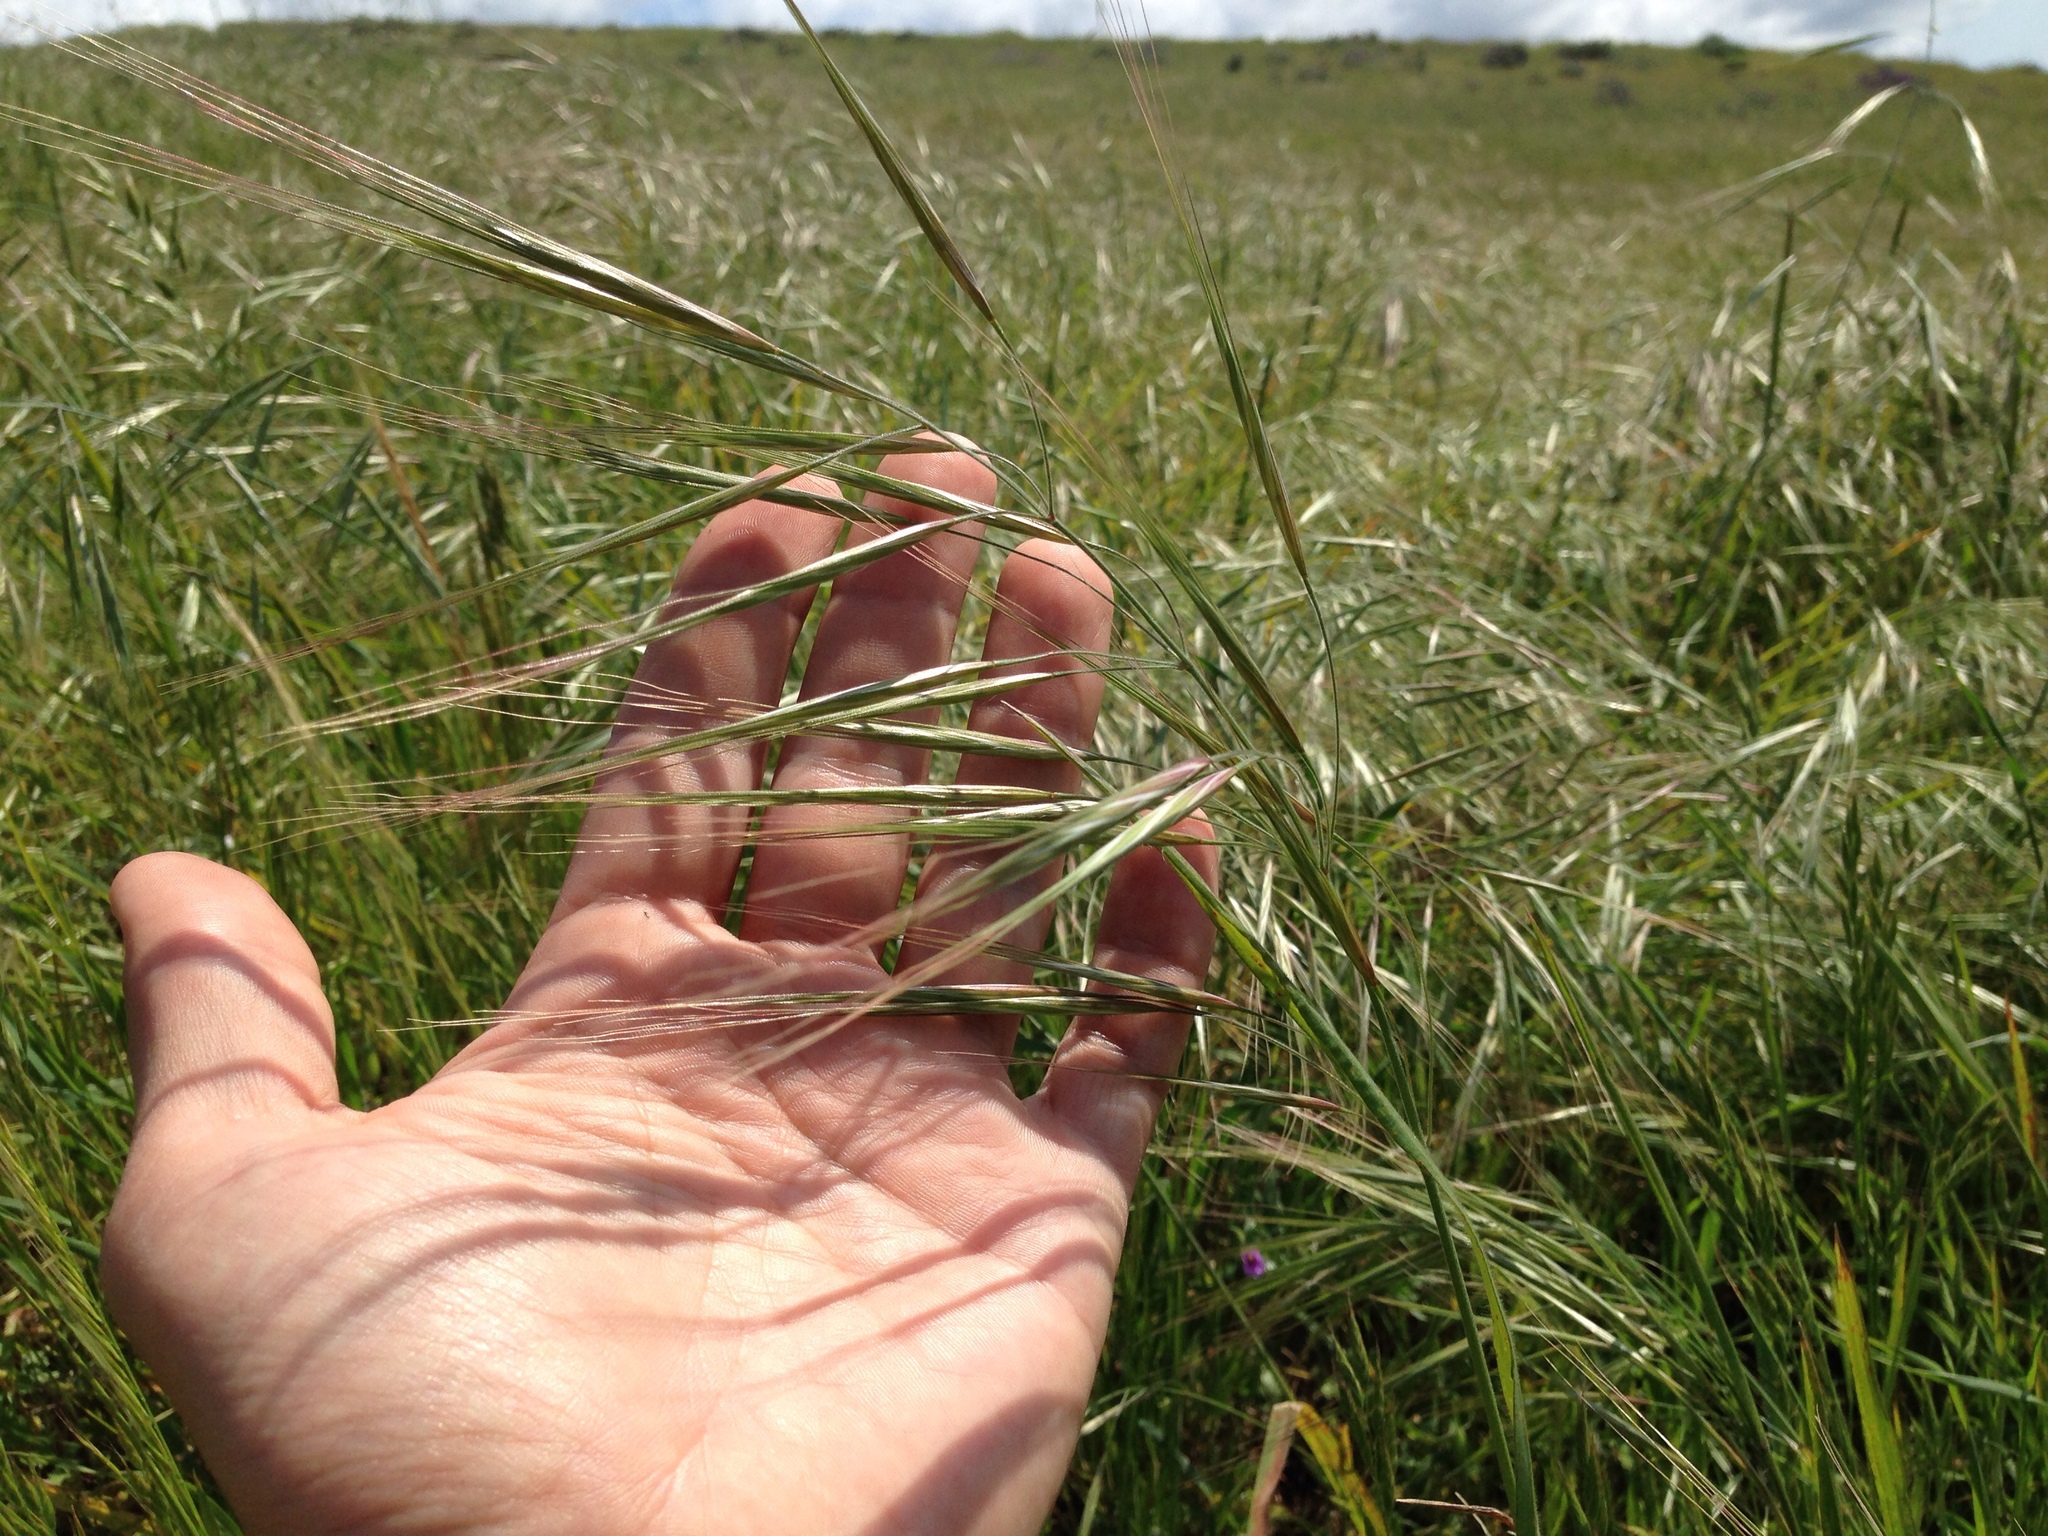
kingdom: Plantae
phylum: Tracheophyta
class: Liliopsida
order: Poales
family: Poaceae
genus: Bromus
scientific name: Bromus diandrus
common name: Ripgut brome
